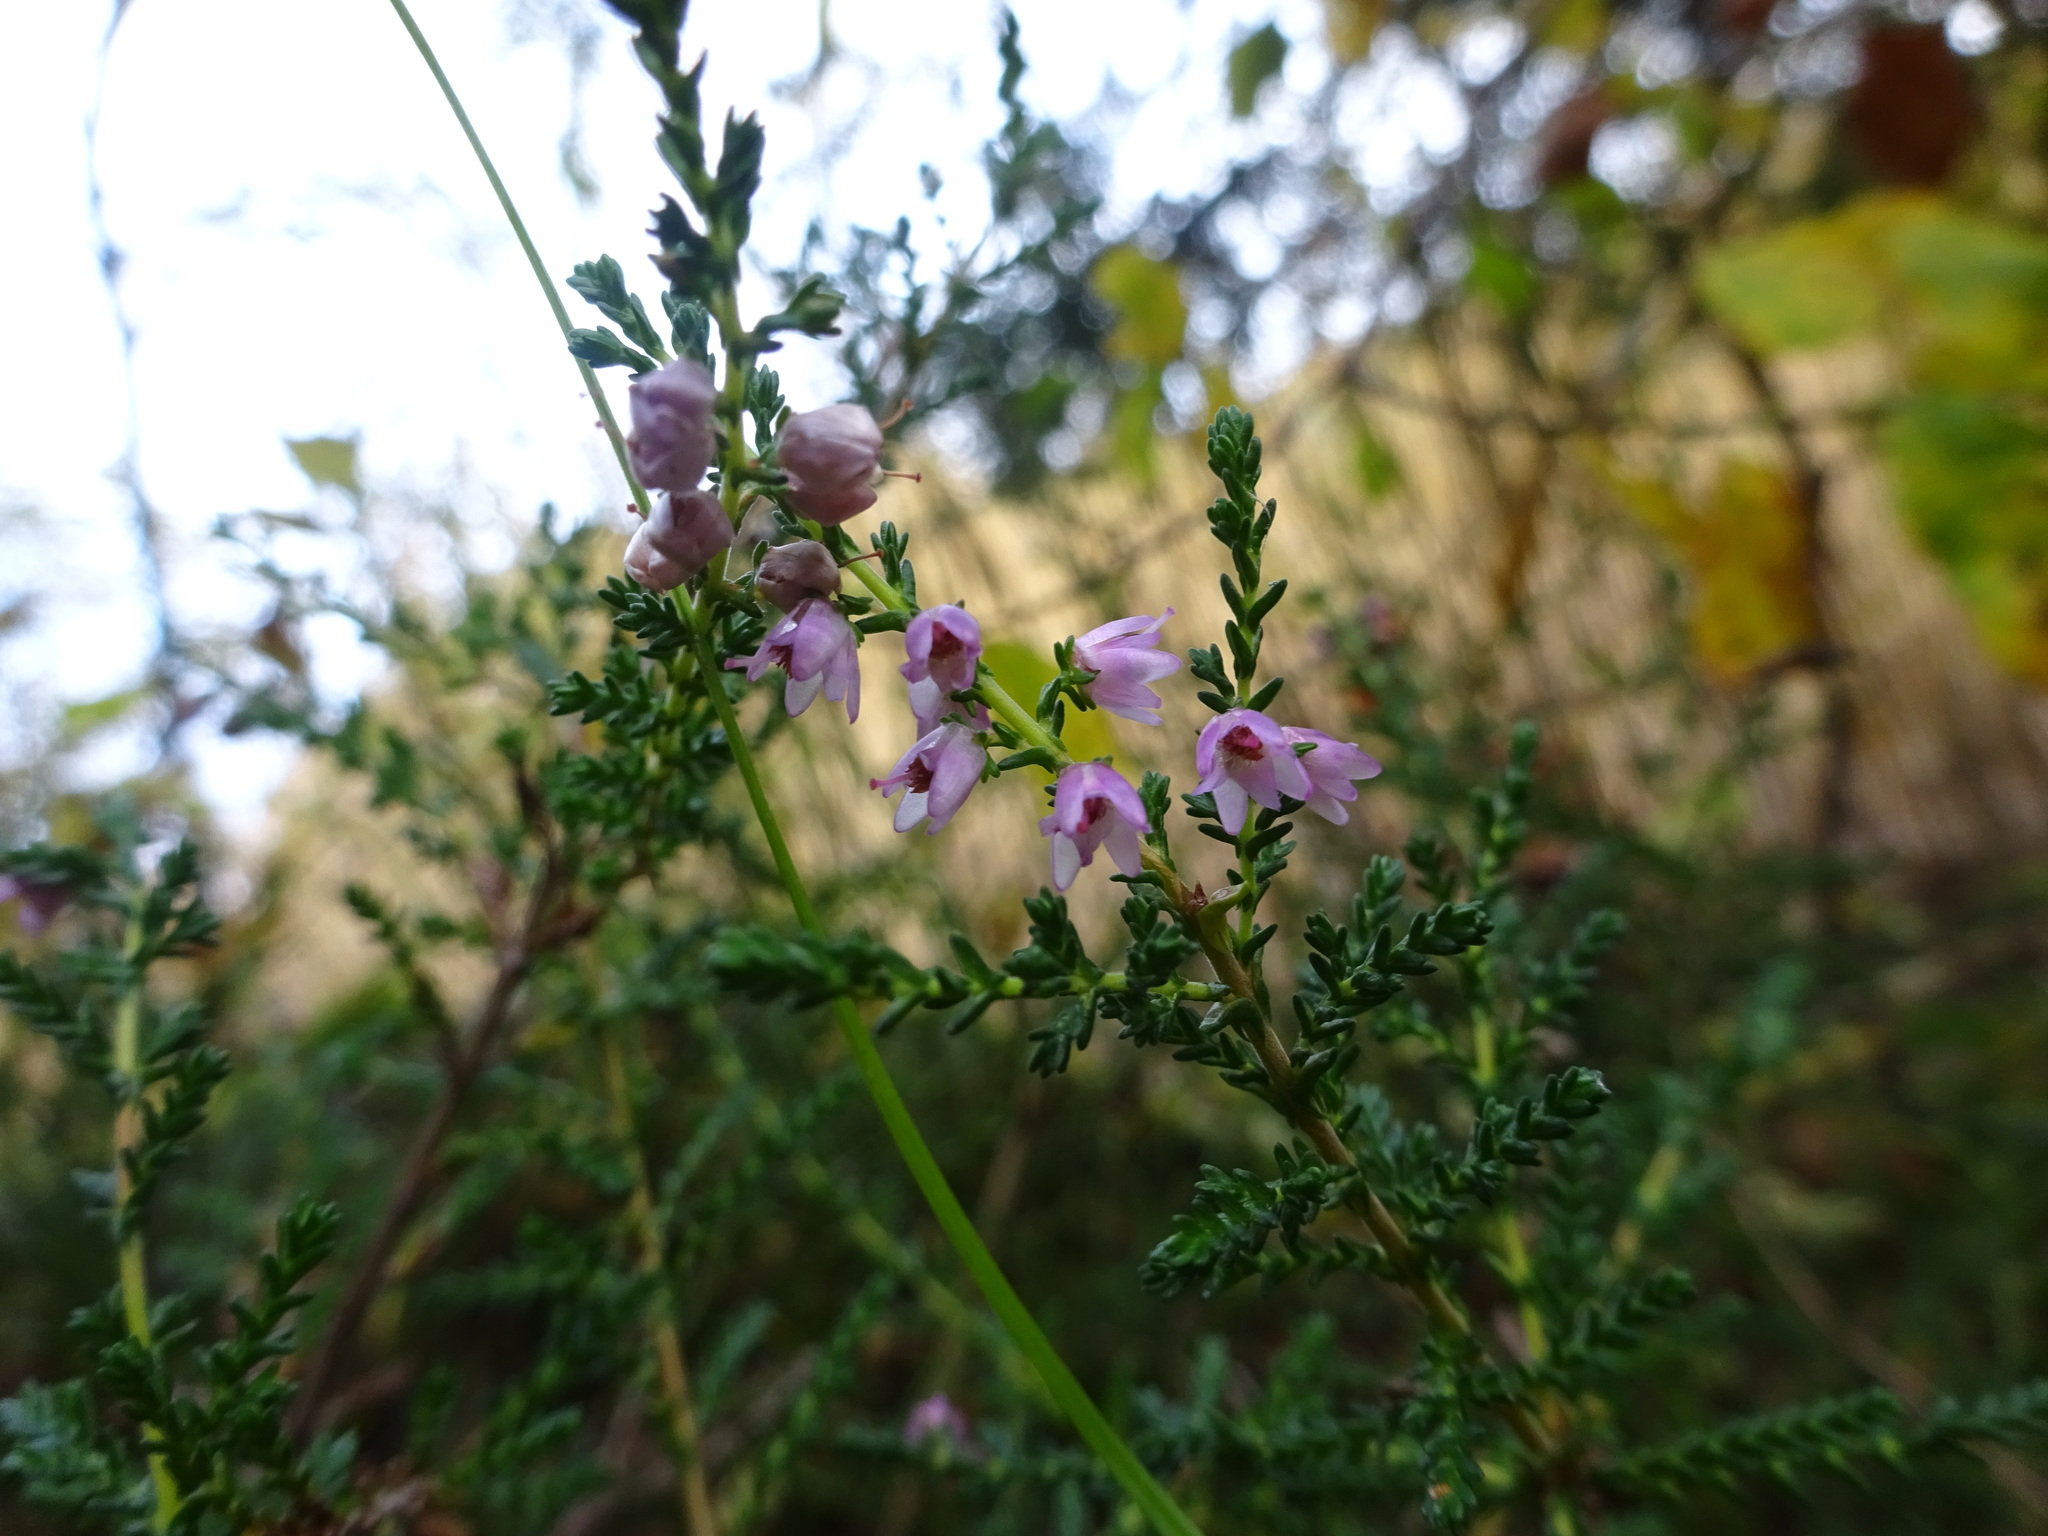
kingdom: Plantae
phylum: Tracheophyta
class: Magnoliopsida
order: Ericales
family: Ericaceae
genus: Calluna
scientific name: Calluna vulgaris
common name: Heather
